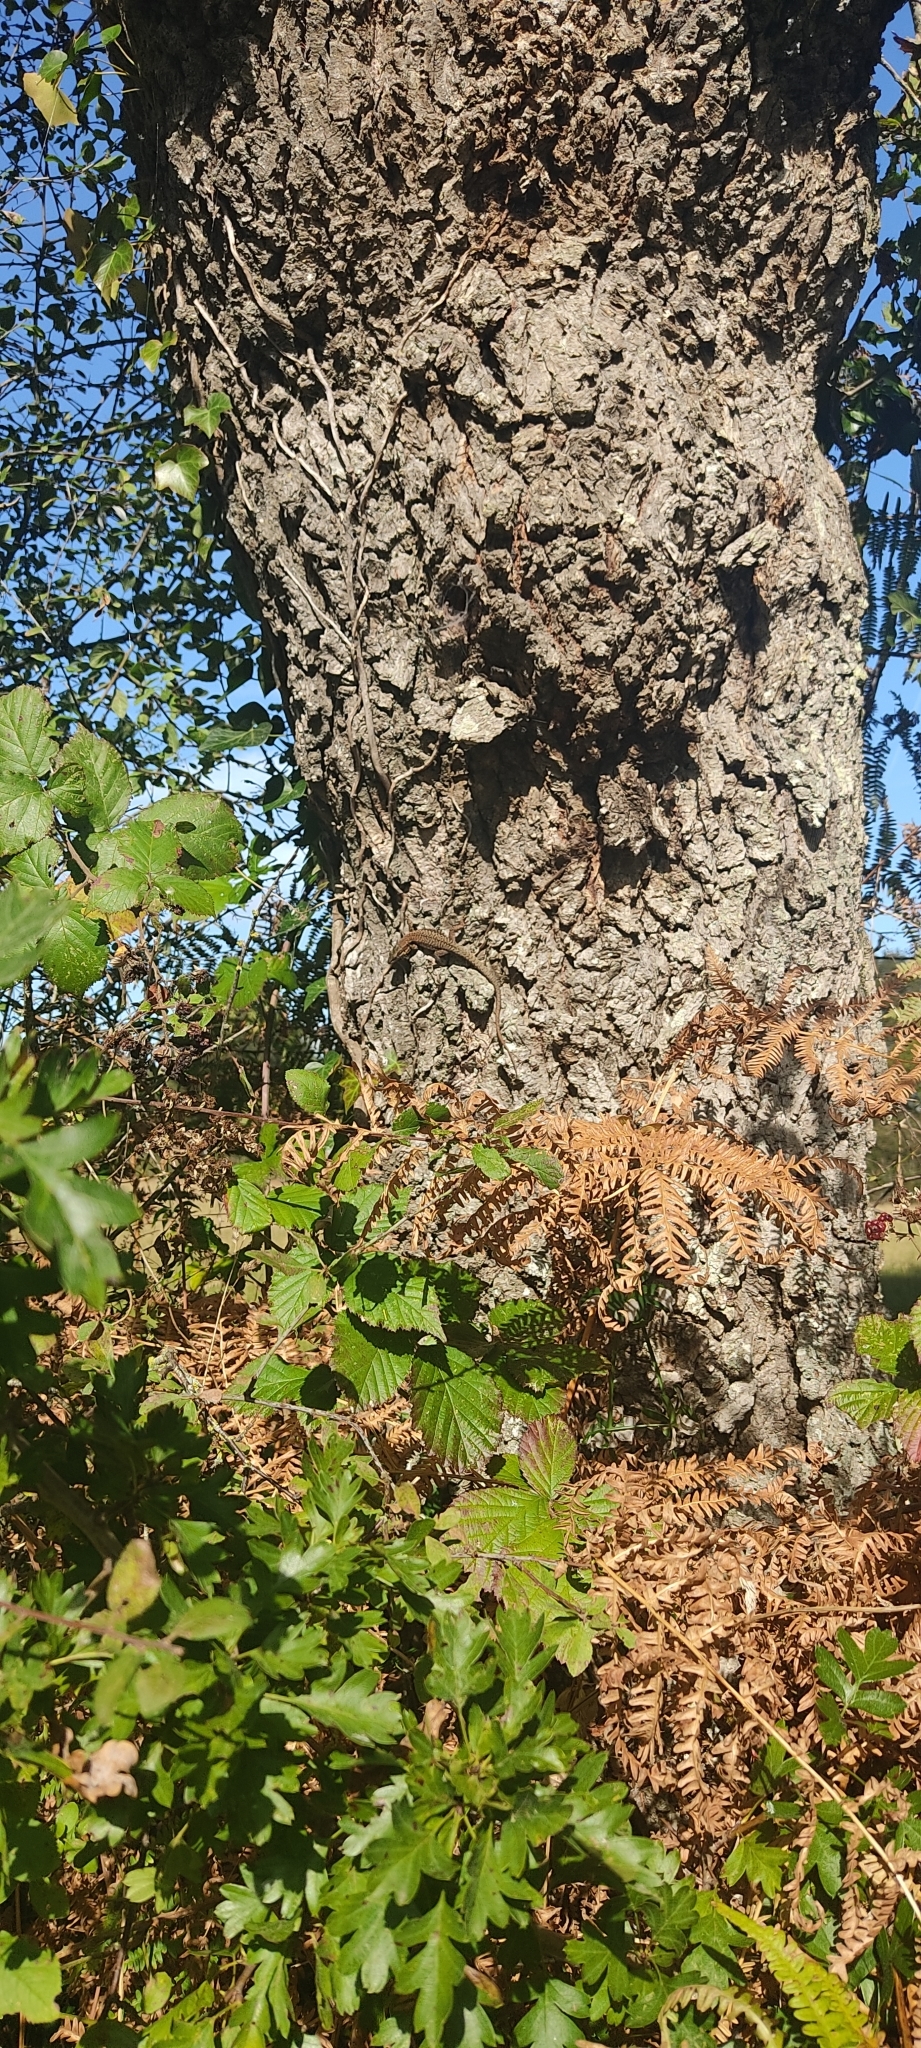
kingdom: Animalia
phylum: Chordata
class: Squamata
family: Lacertidae
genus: Podarcis
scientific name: Podarcis muralis
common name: Common wall lizard
